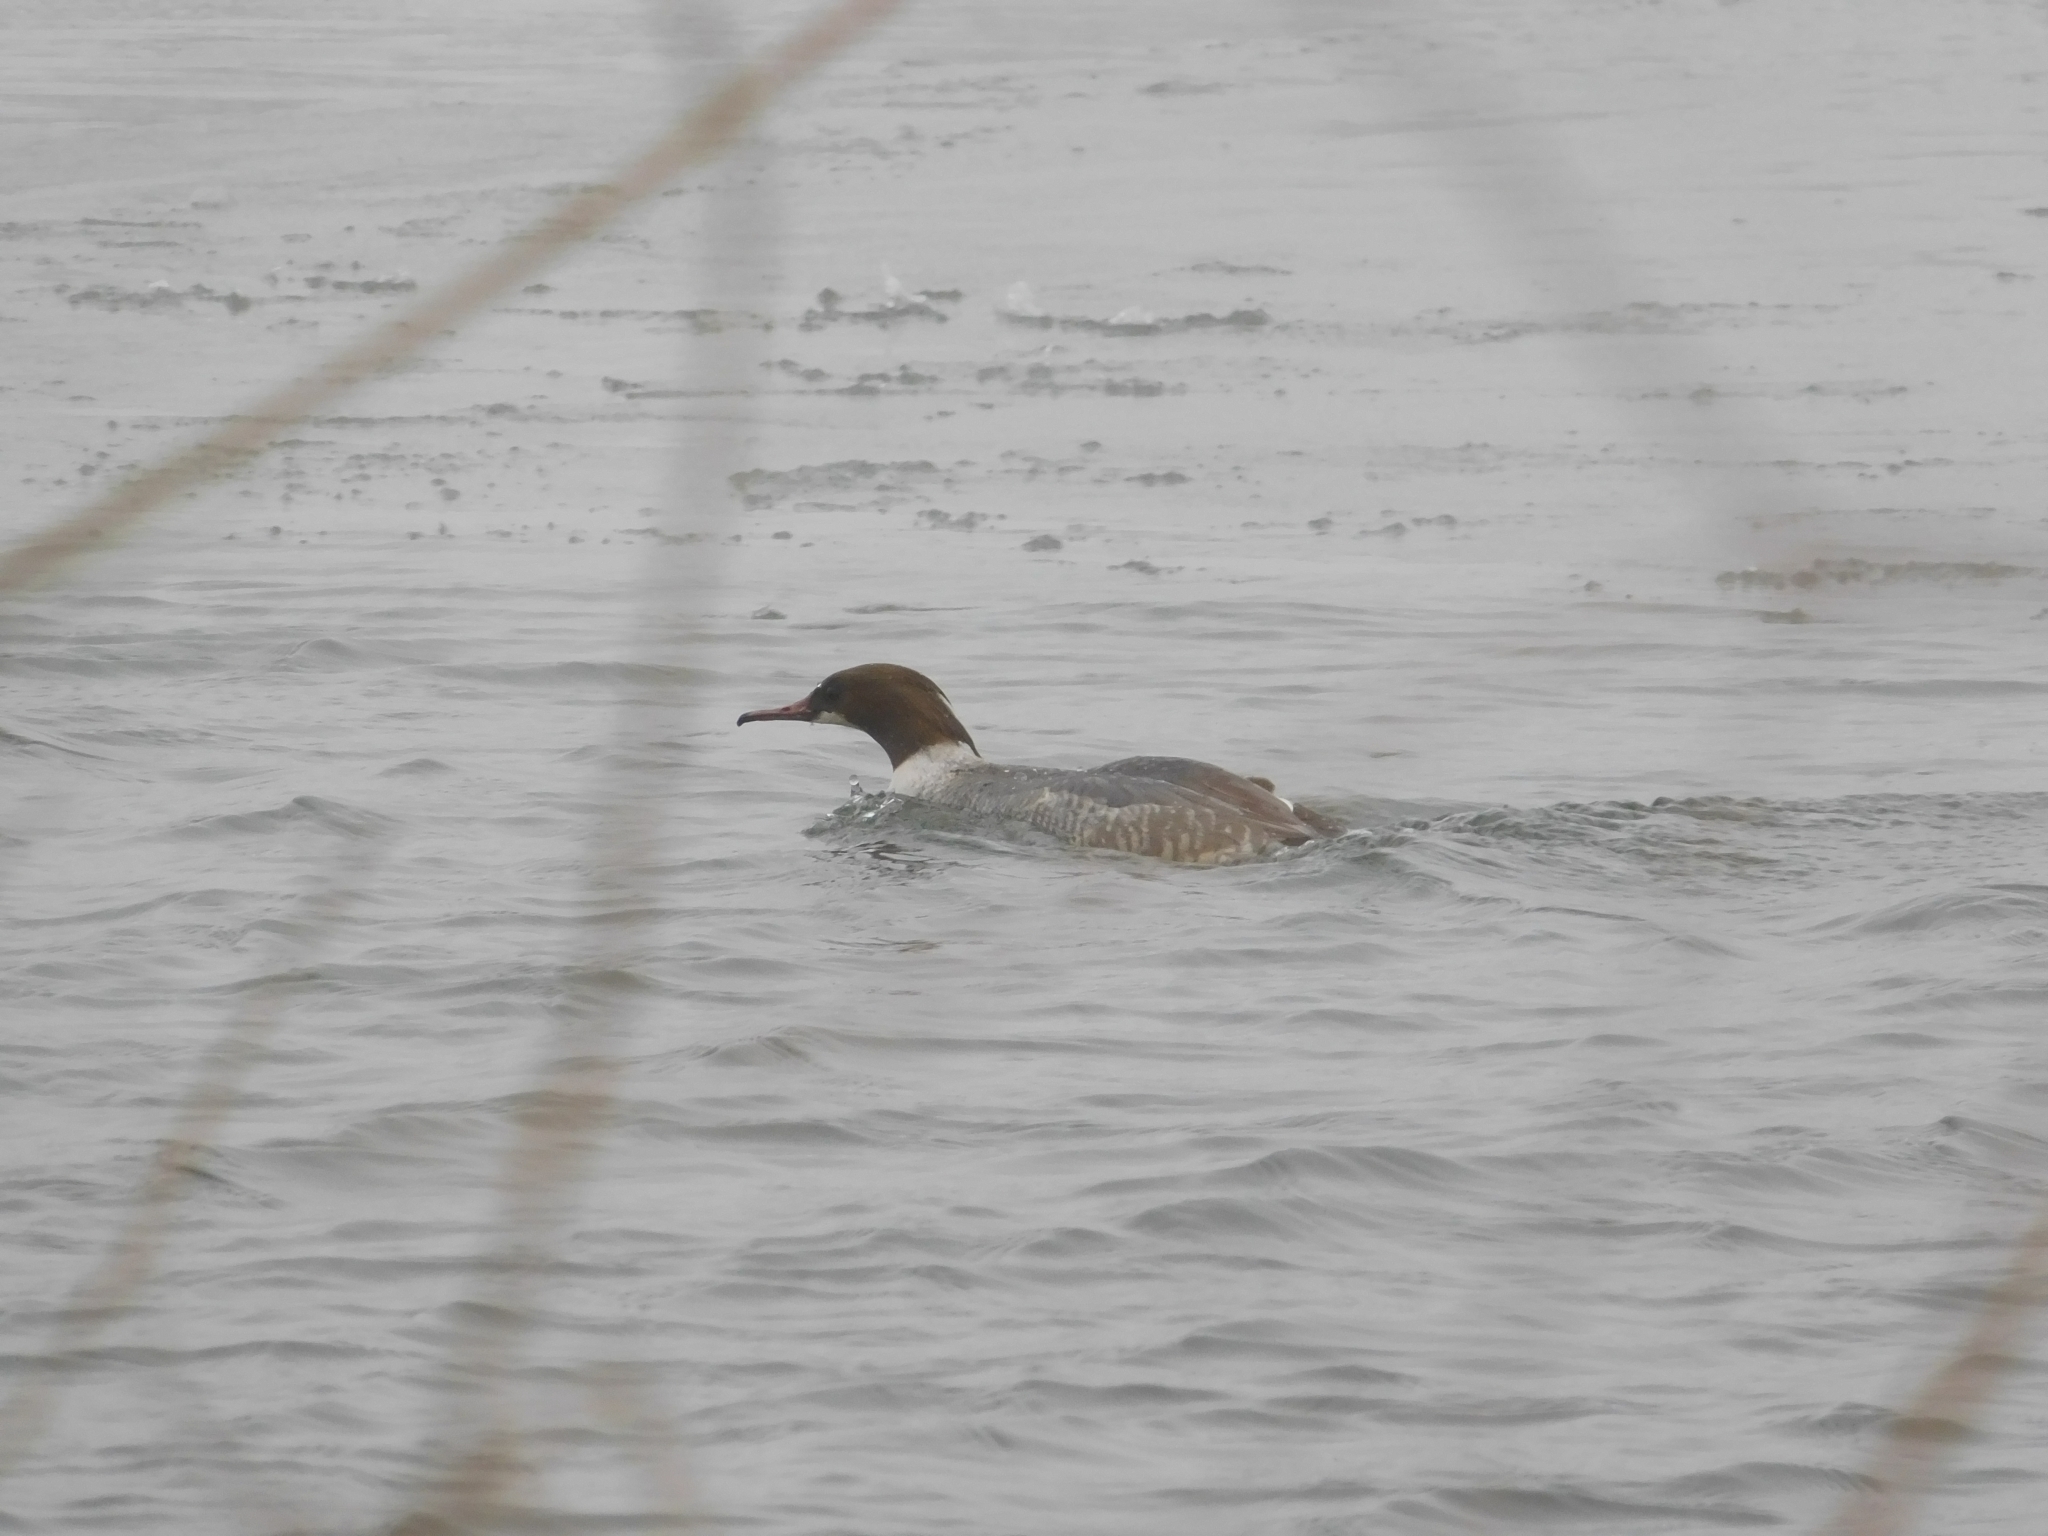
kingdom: Animalia
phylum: Chordata
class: Aves
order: Anseriformes
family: Anatidae
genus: Mergus
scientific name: Mergus merganser
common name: Common merganser
